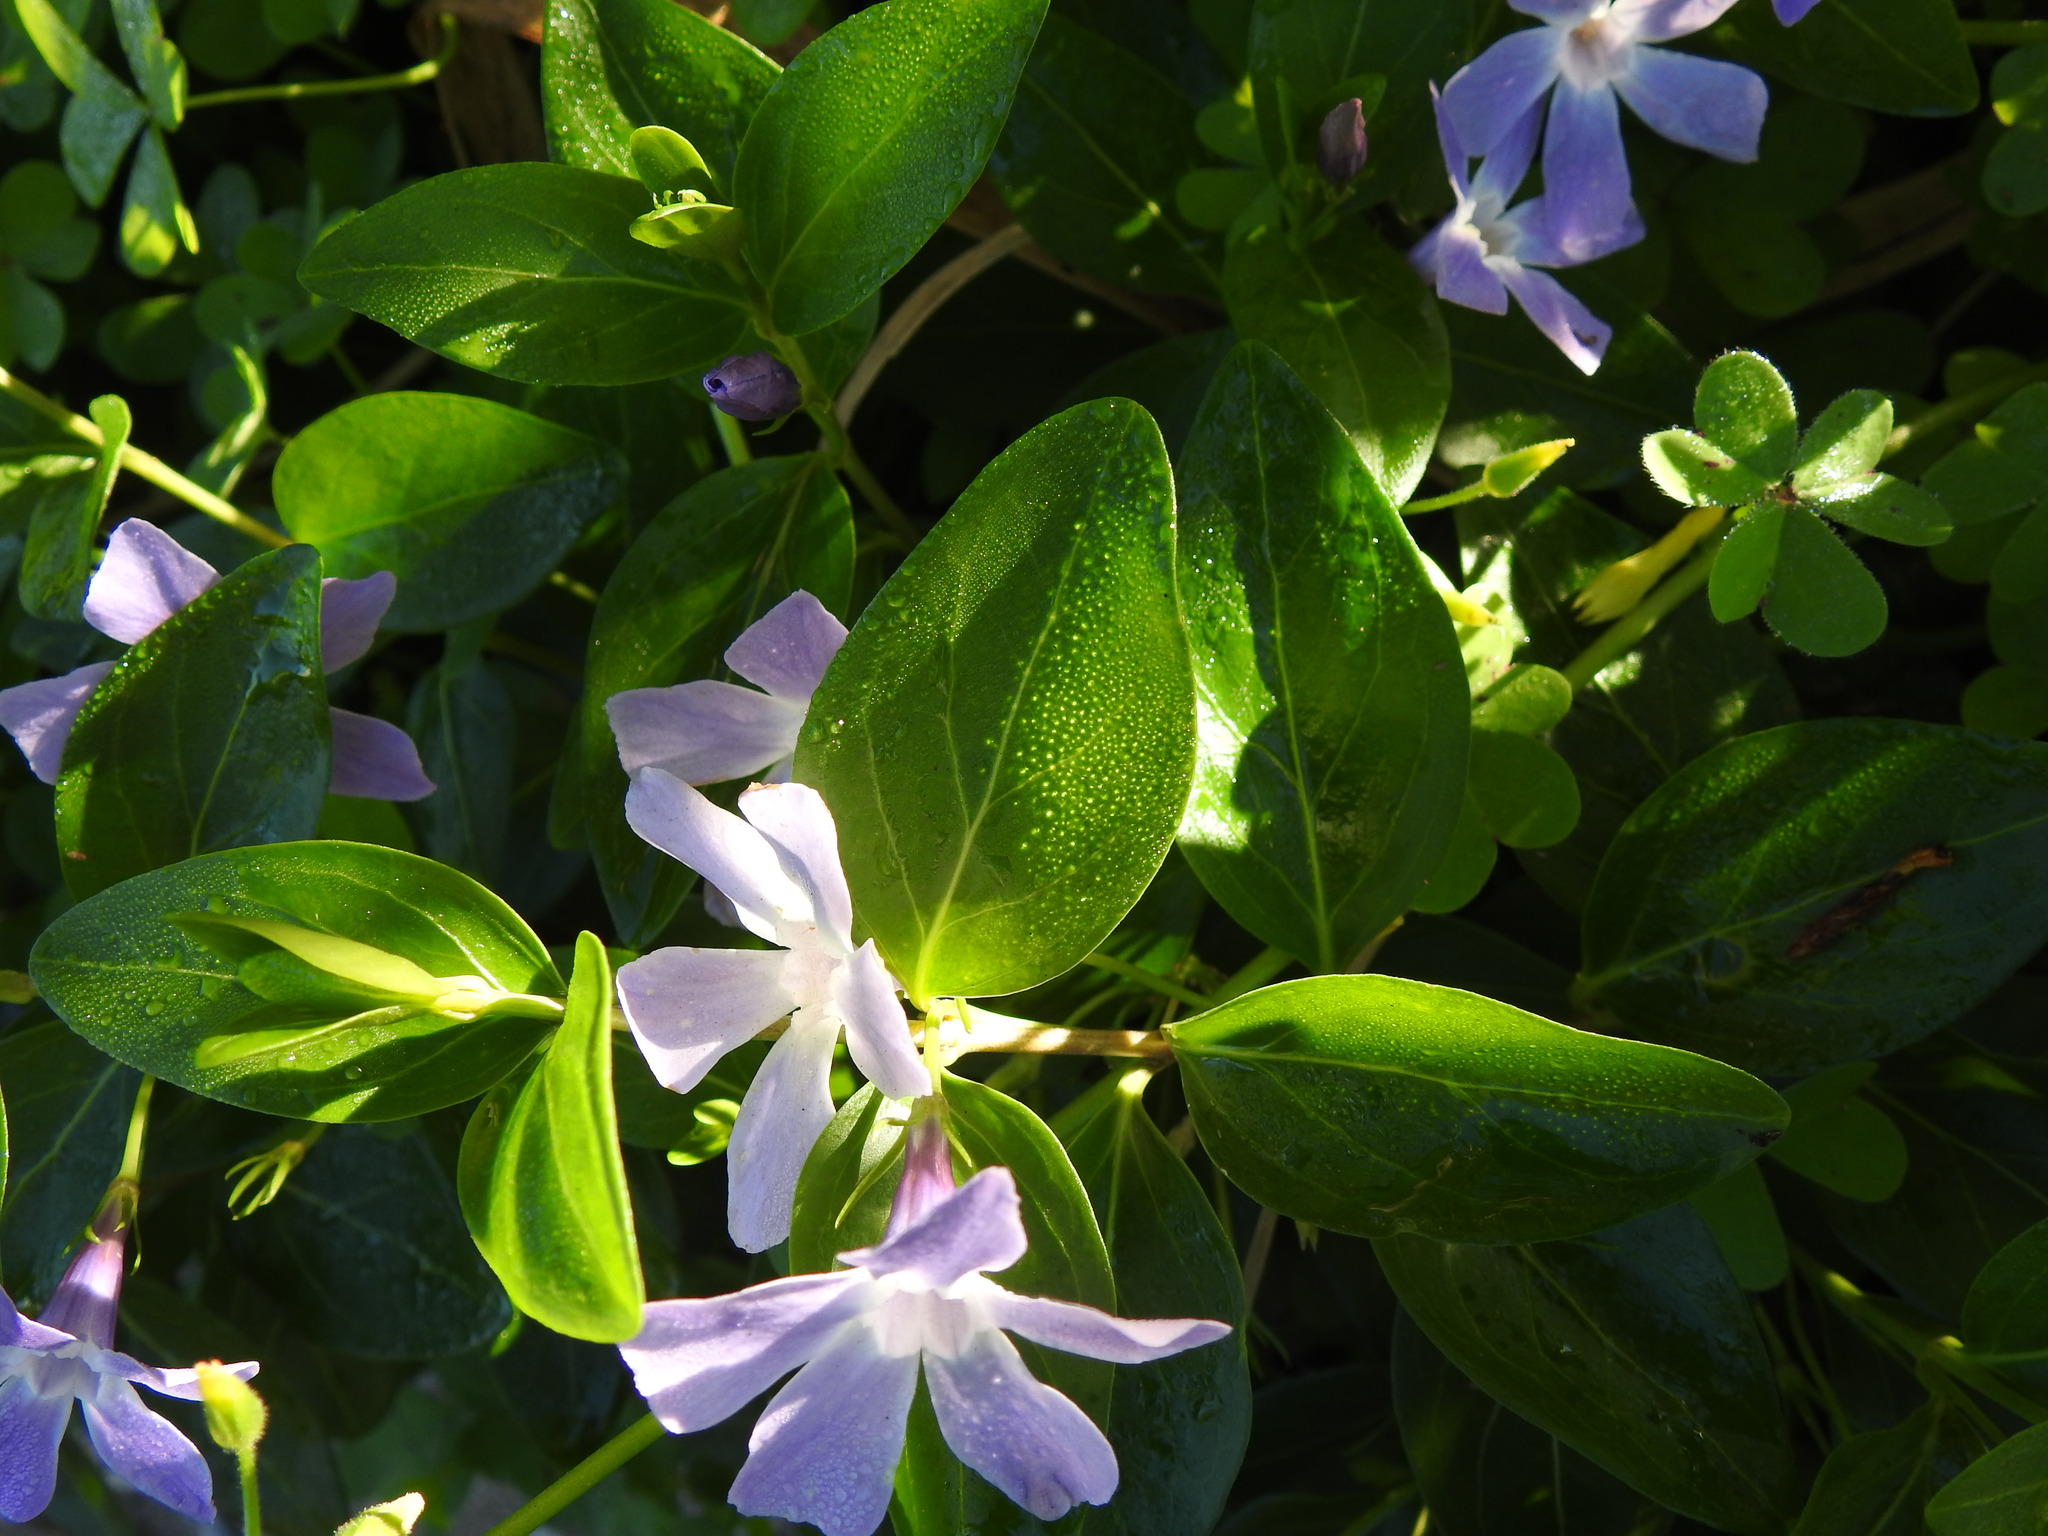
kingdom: Plantae
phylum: Tracheophyta
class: Magnoliopsida
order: Gentianales
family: Apocynaceae
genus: Vinca
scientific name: Vinca difformis
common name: Intermediate periwinkle
